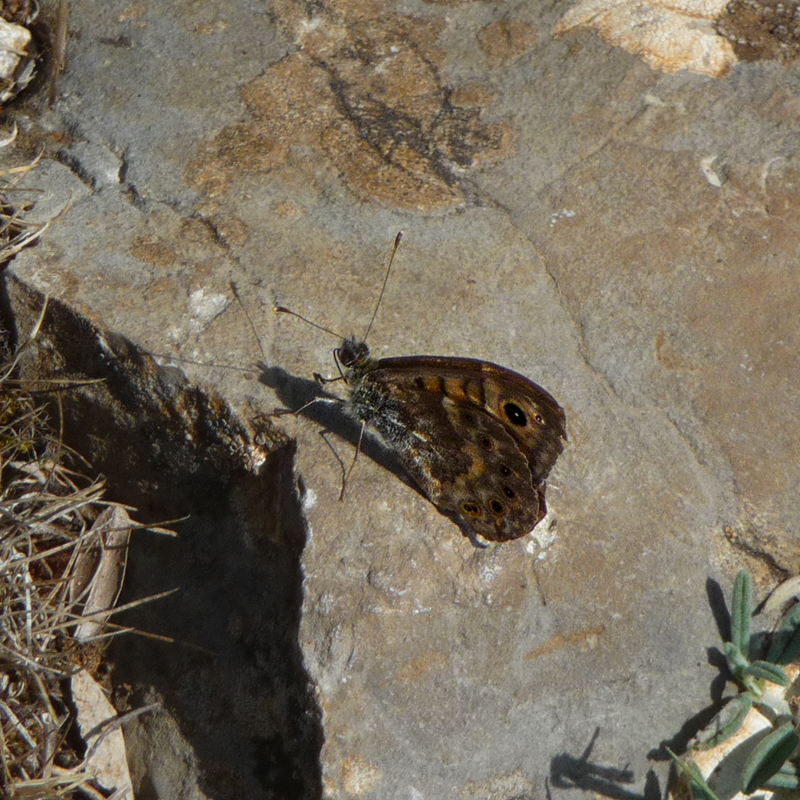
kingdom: Animalia
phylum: Arthropoda
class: Insecta
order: Lepidoptera
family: Nymphalidae
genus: Pararge
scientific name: Pararge Lasiommata megera
